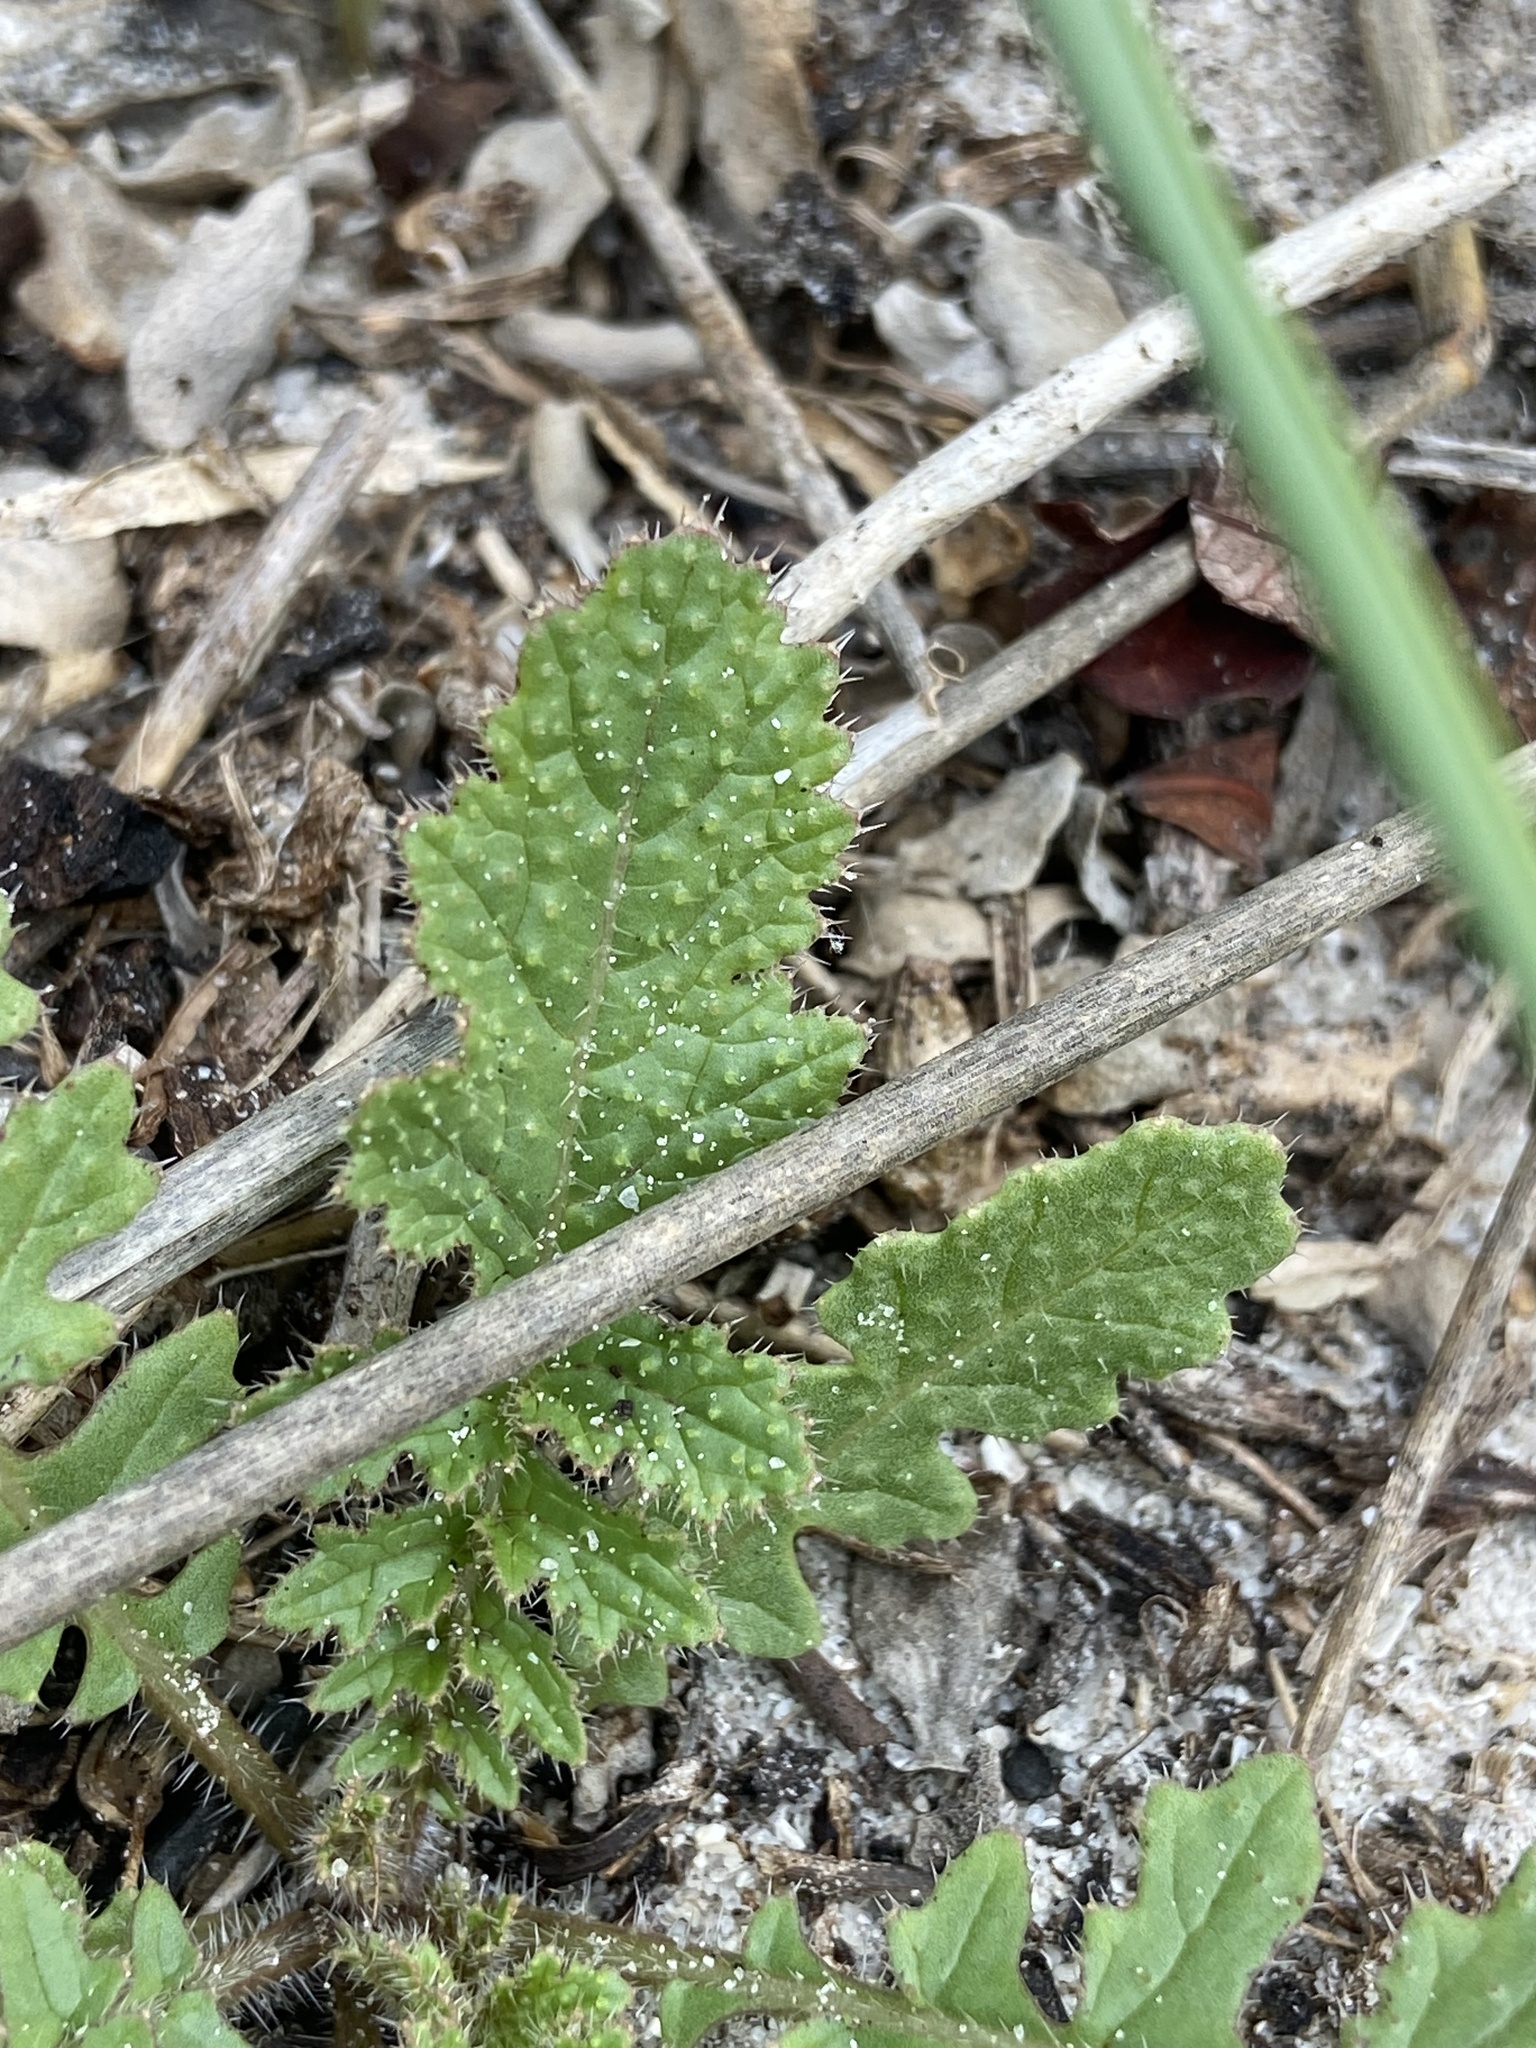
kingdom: Plantae
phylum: Tracheophyta
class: Magnoliopsida
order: Brassicales
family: Brassicaceae
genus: Brassica
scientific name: Brassica tournefortii
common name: Pale cabbage
